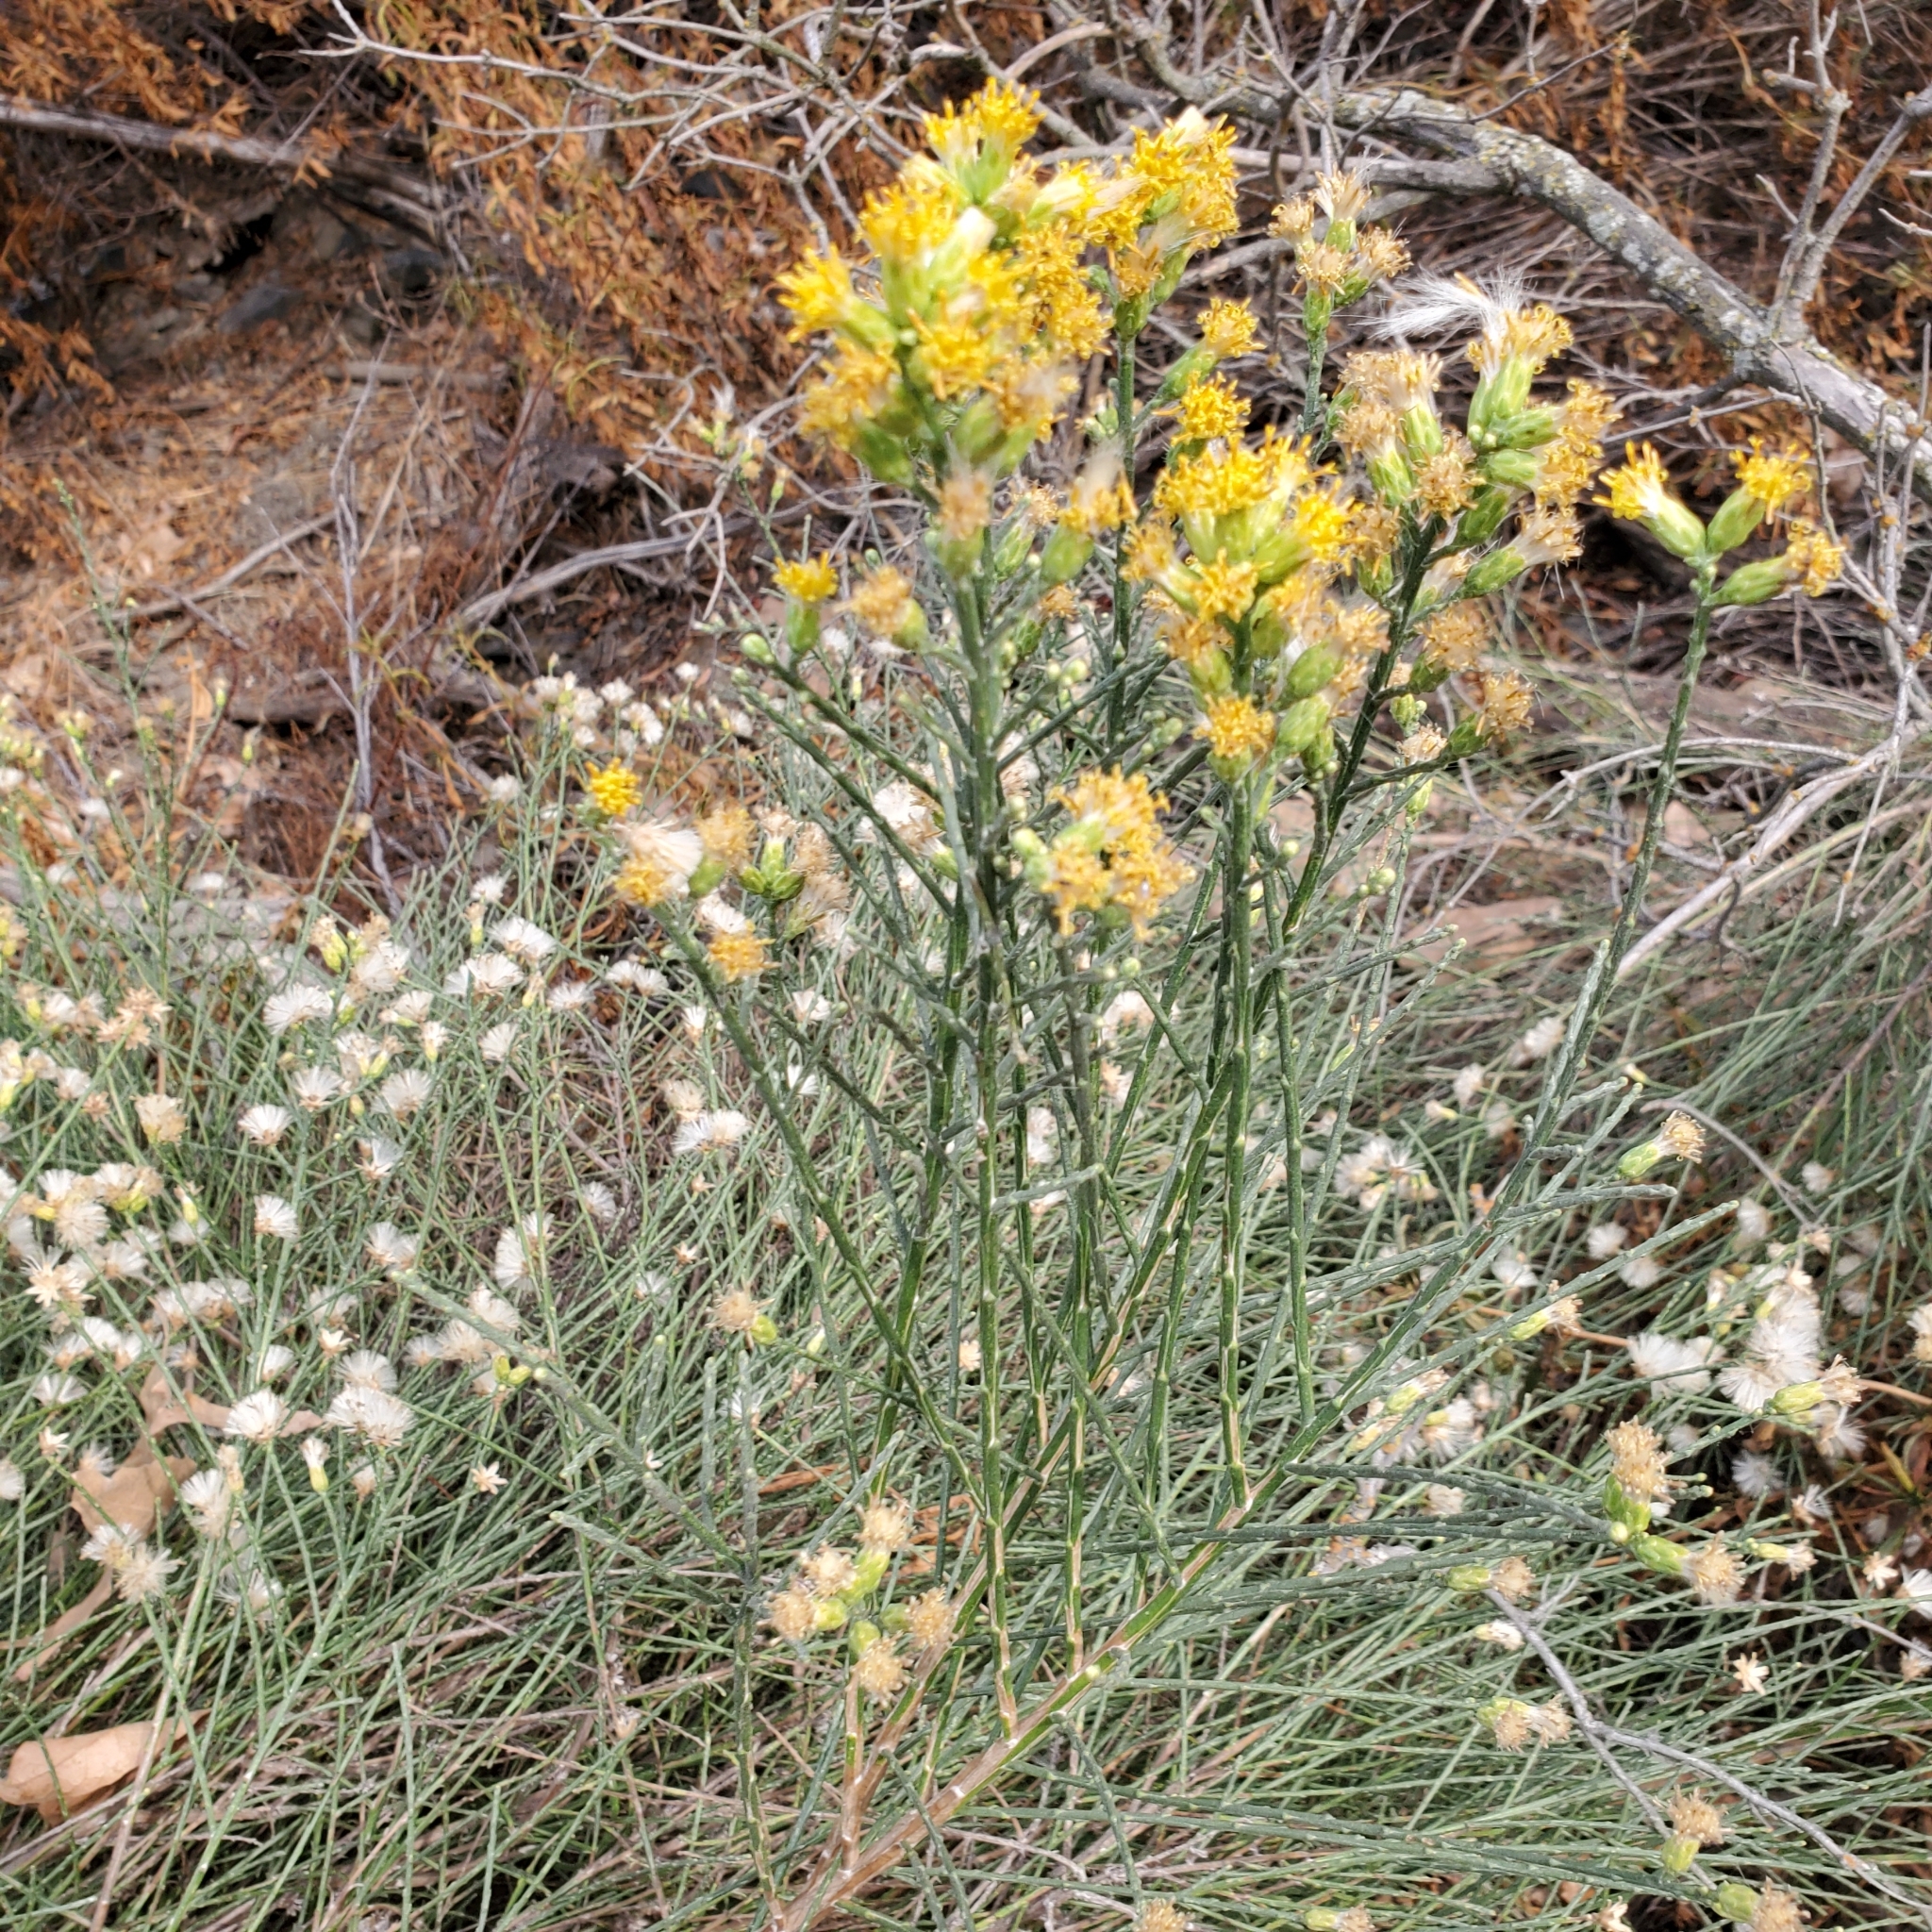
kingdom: Plantae
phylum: Tracheophyta
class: Magnoliopsida
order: Asterales
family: Asteraceae
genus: Lepidospartum
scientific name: Lepidospartum squamatum
